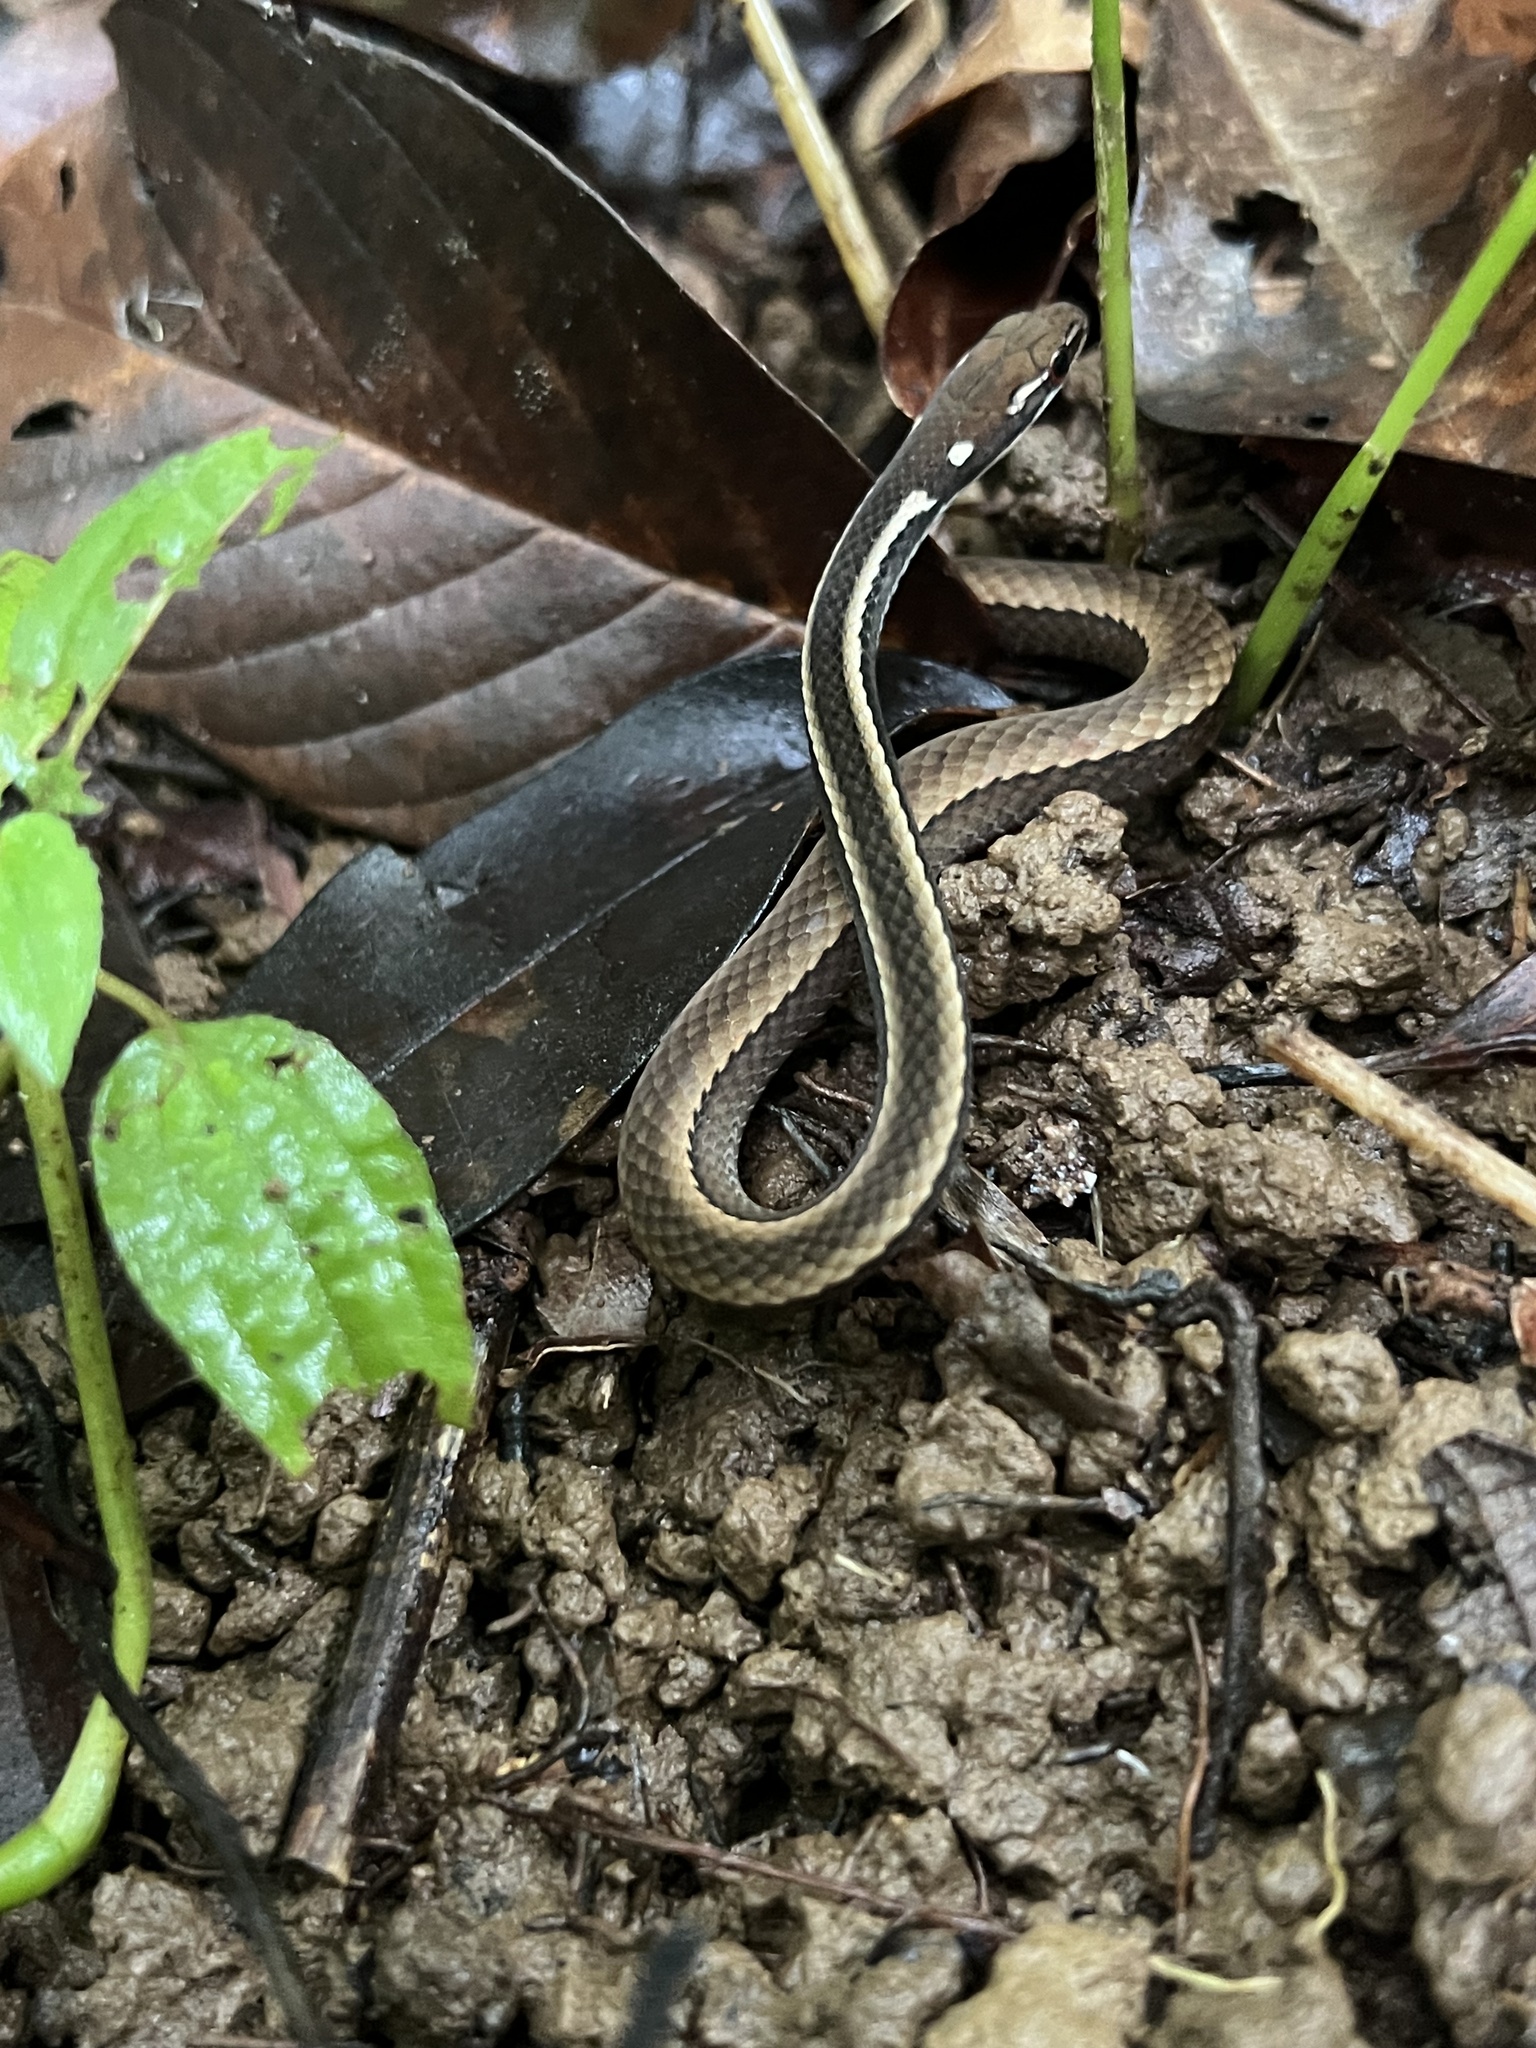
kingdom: Animalia
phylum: Chordata
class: Squamata
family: Colubridae
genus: Rhadinaea
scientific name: Rhadinaea decorata
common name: Adorned graceful brown snake
